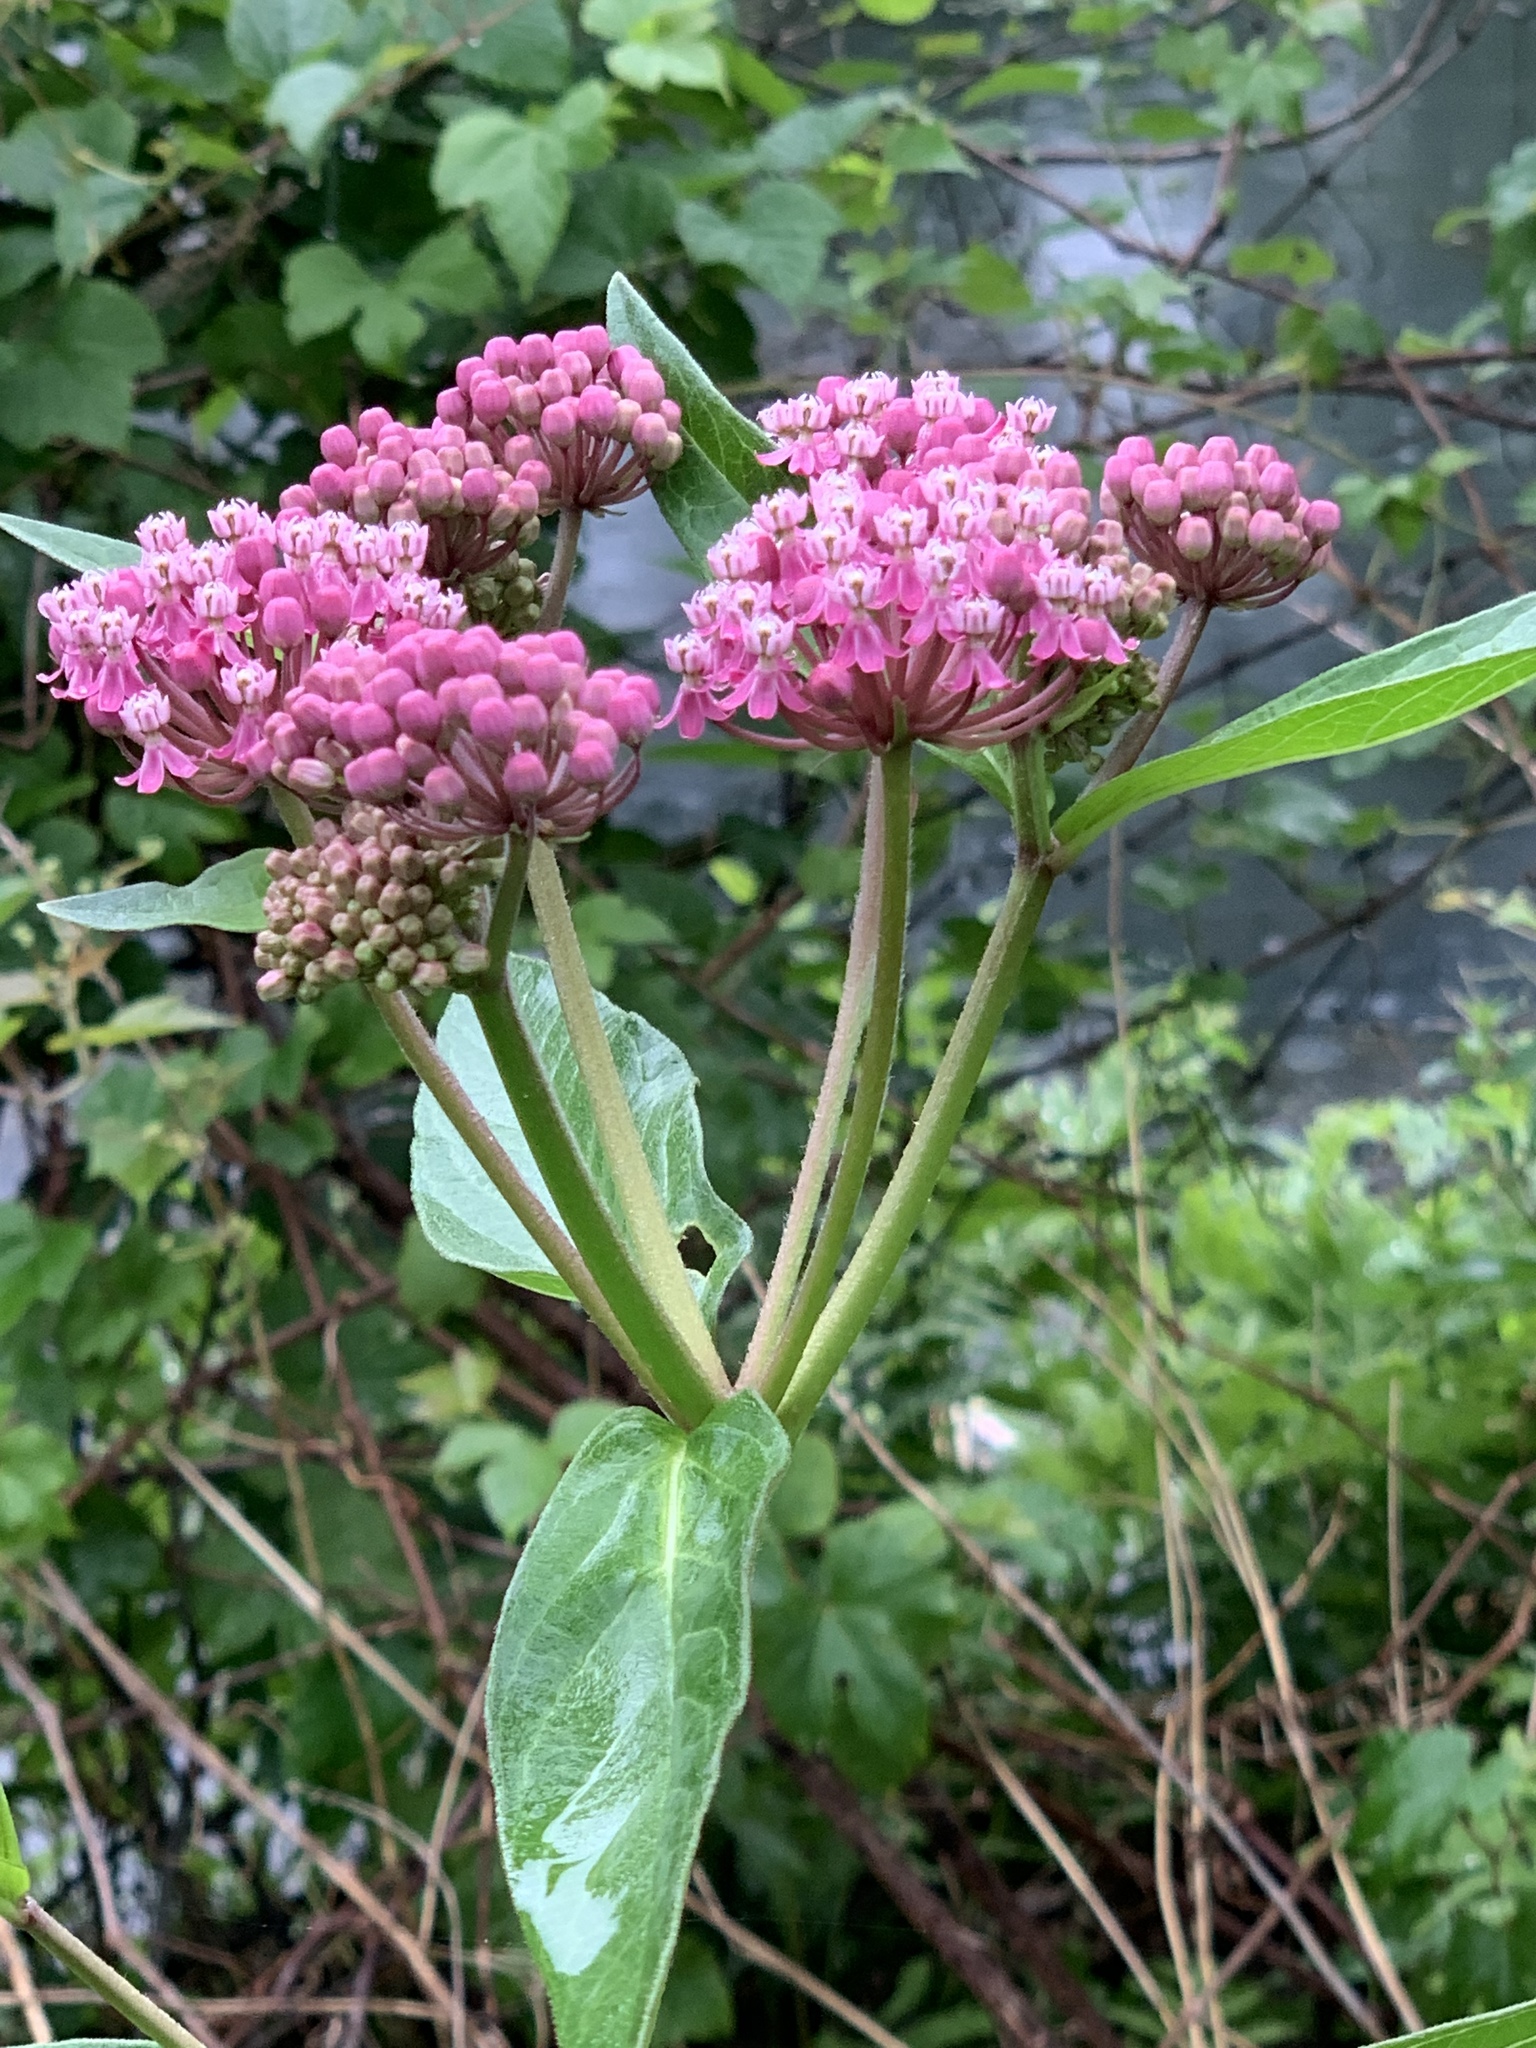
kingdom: Plantae
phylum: Tracheophyta
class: Magnoliopsida
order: Gentianales
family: Apocynaceae
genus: Asclepias
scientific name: Asclepias incarnata
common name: Swamp milkweed
